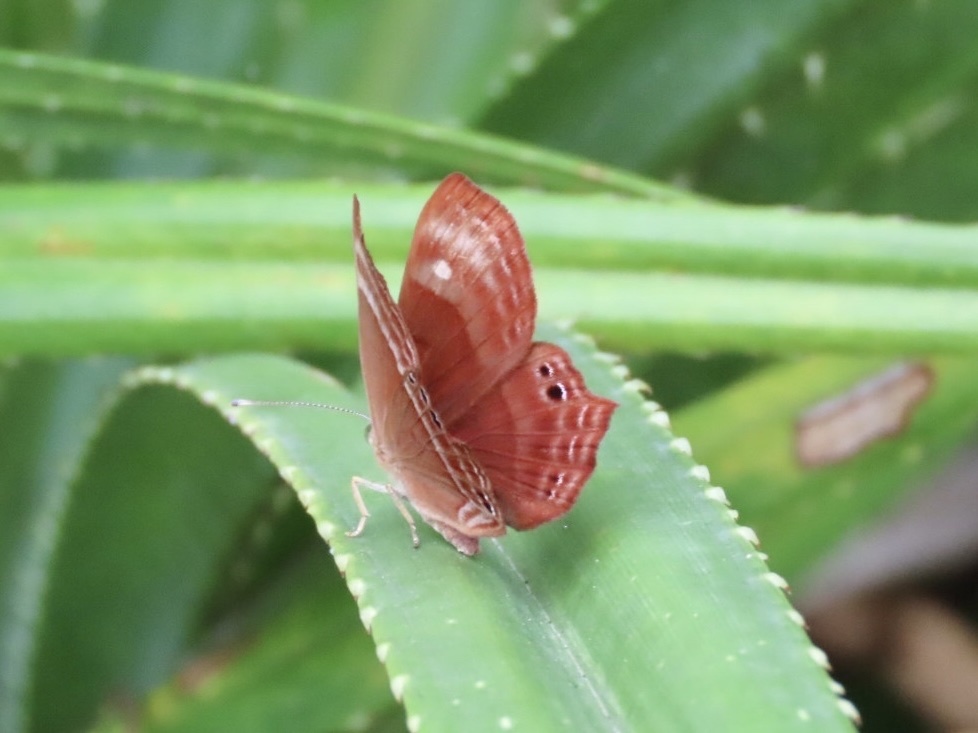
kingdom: Animalia
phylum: Arthropoda
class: Insecta
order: Lepidoptera
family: Lycaenidae
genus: Abisara
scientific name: Abisara echeria
